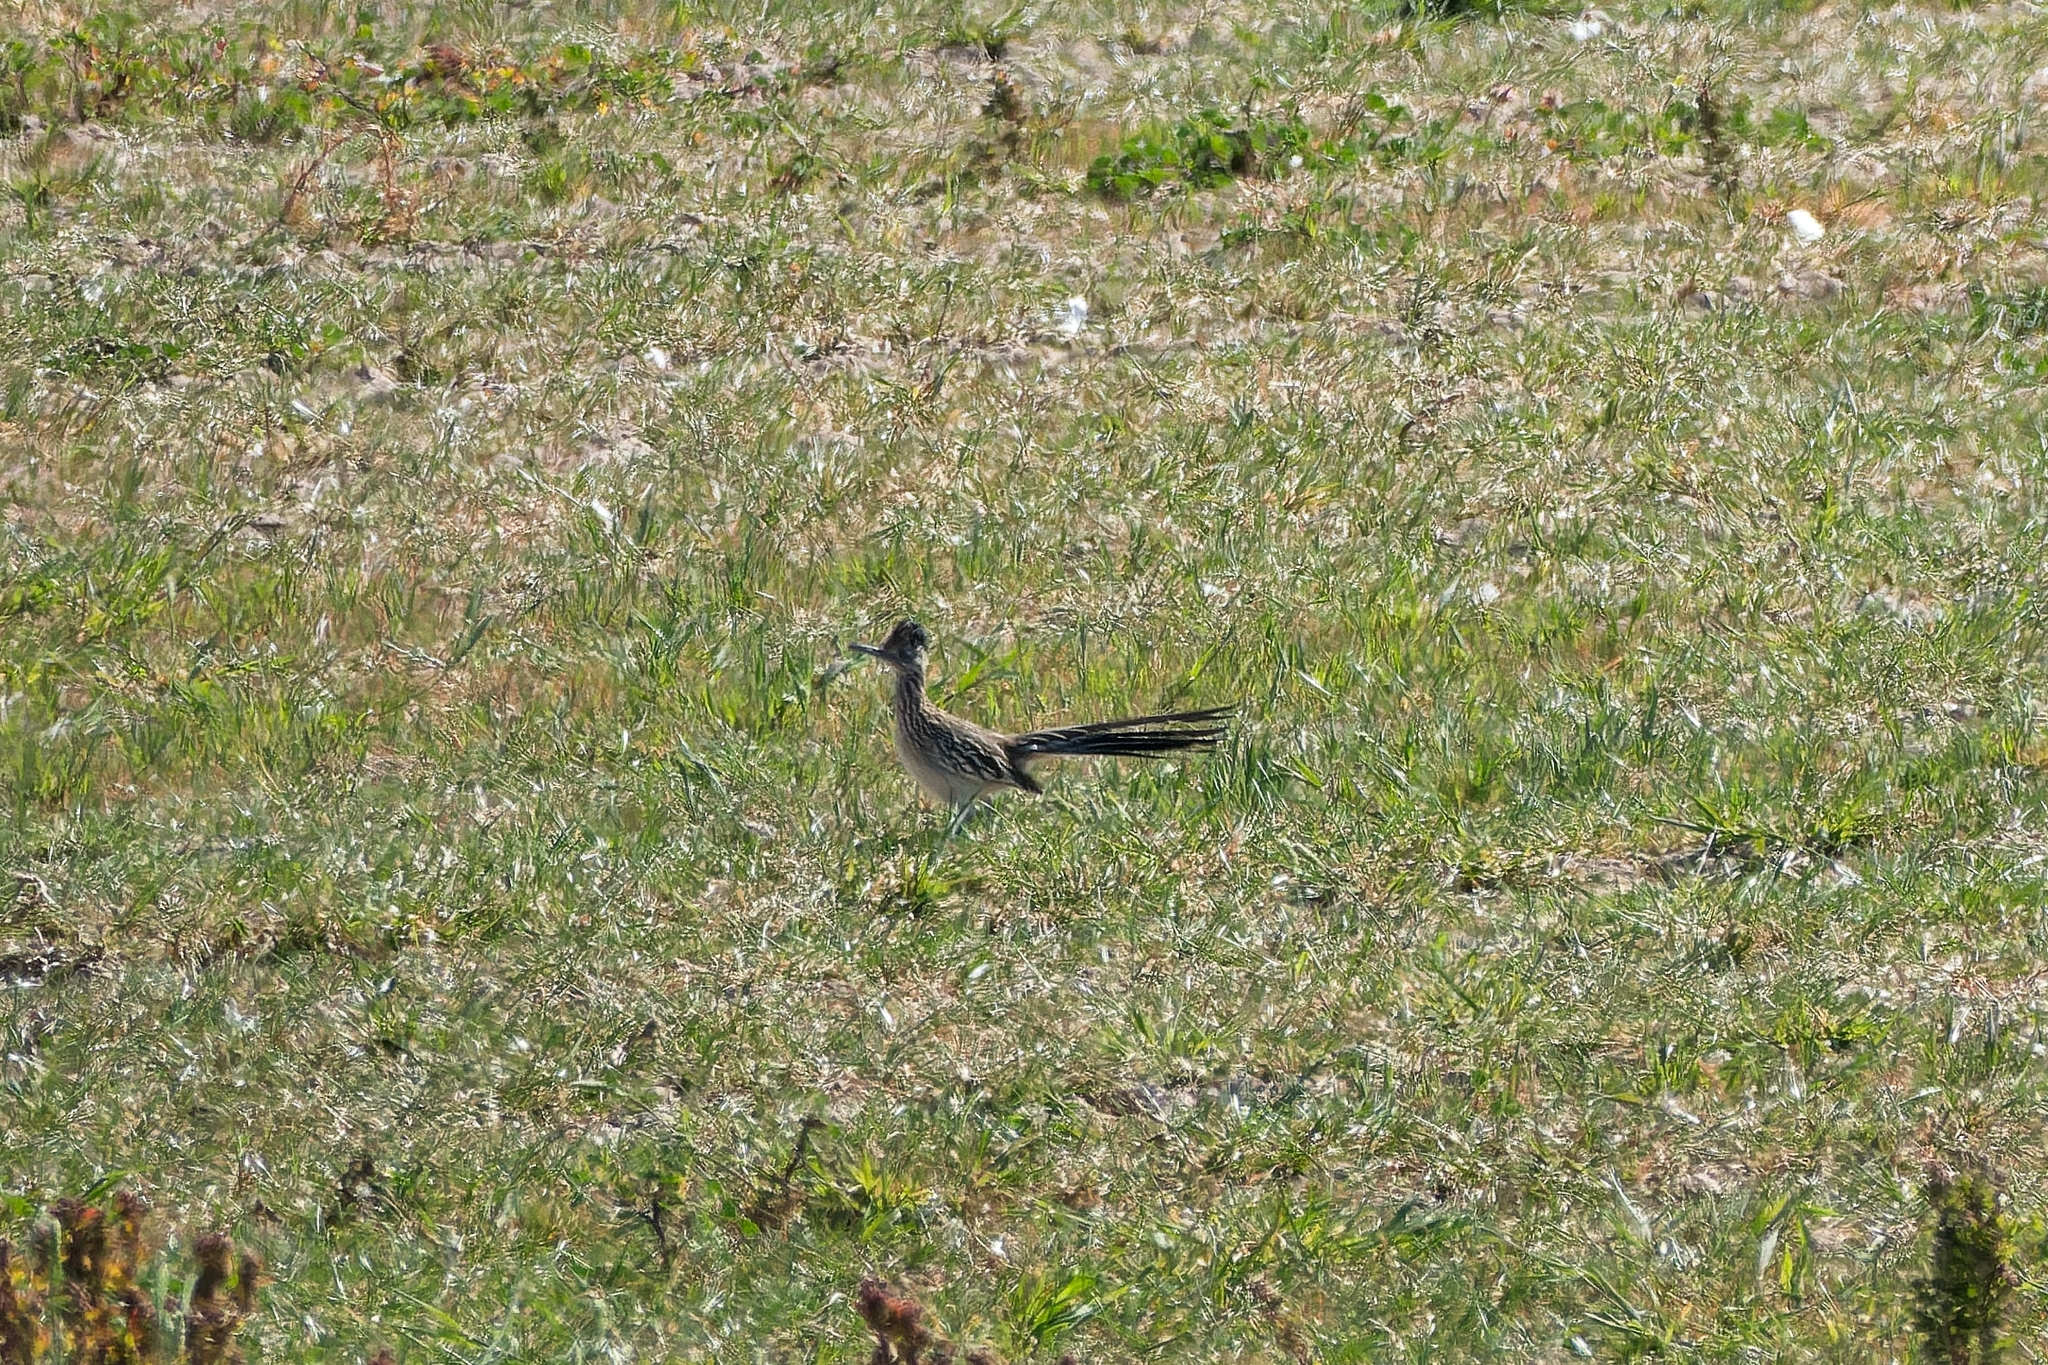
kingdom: Animalia
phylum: Chordata
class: Aves
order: Cuculiformes
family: Cuculidae
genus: Geococcyx
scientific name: Geococcyx californianus
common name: Greater roadrunner
